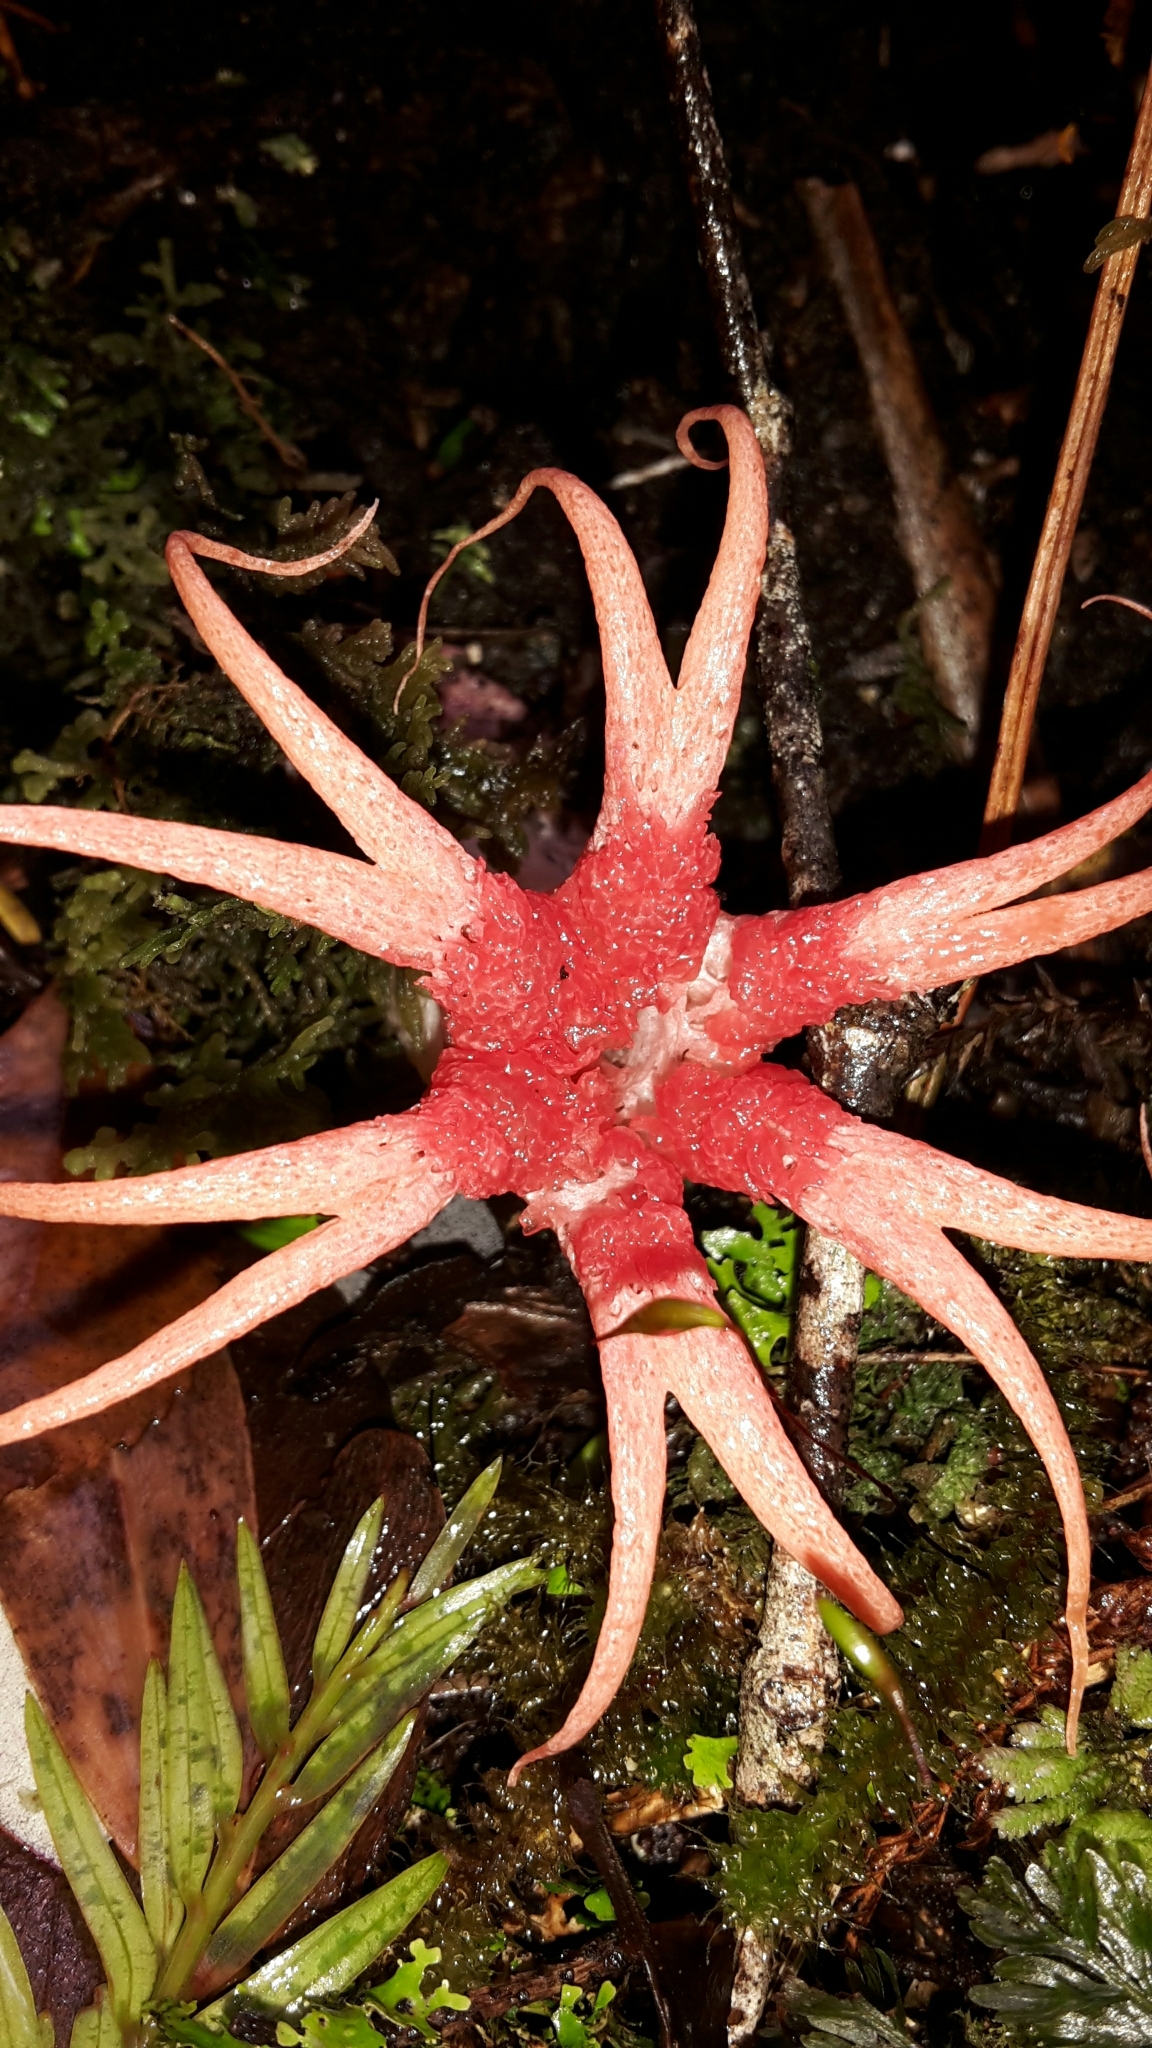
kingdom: Fungi
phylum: Basidiomycota
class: Agaricomycetes
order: Phallales
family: Phallaceae
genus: Aseroe
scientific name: Aseroe rubra
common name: Starfish fungus
